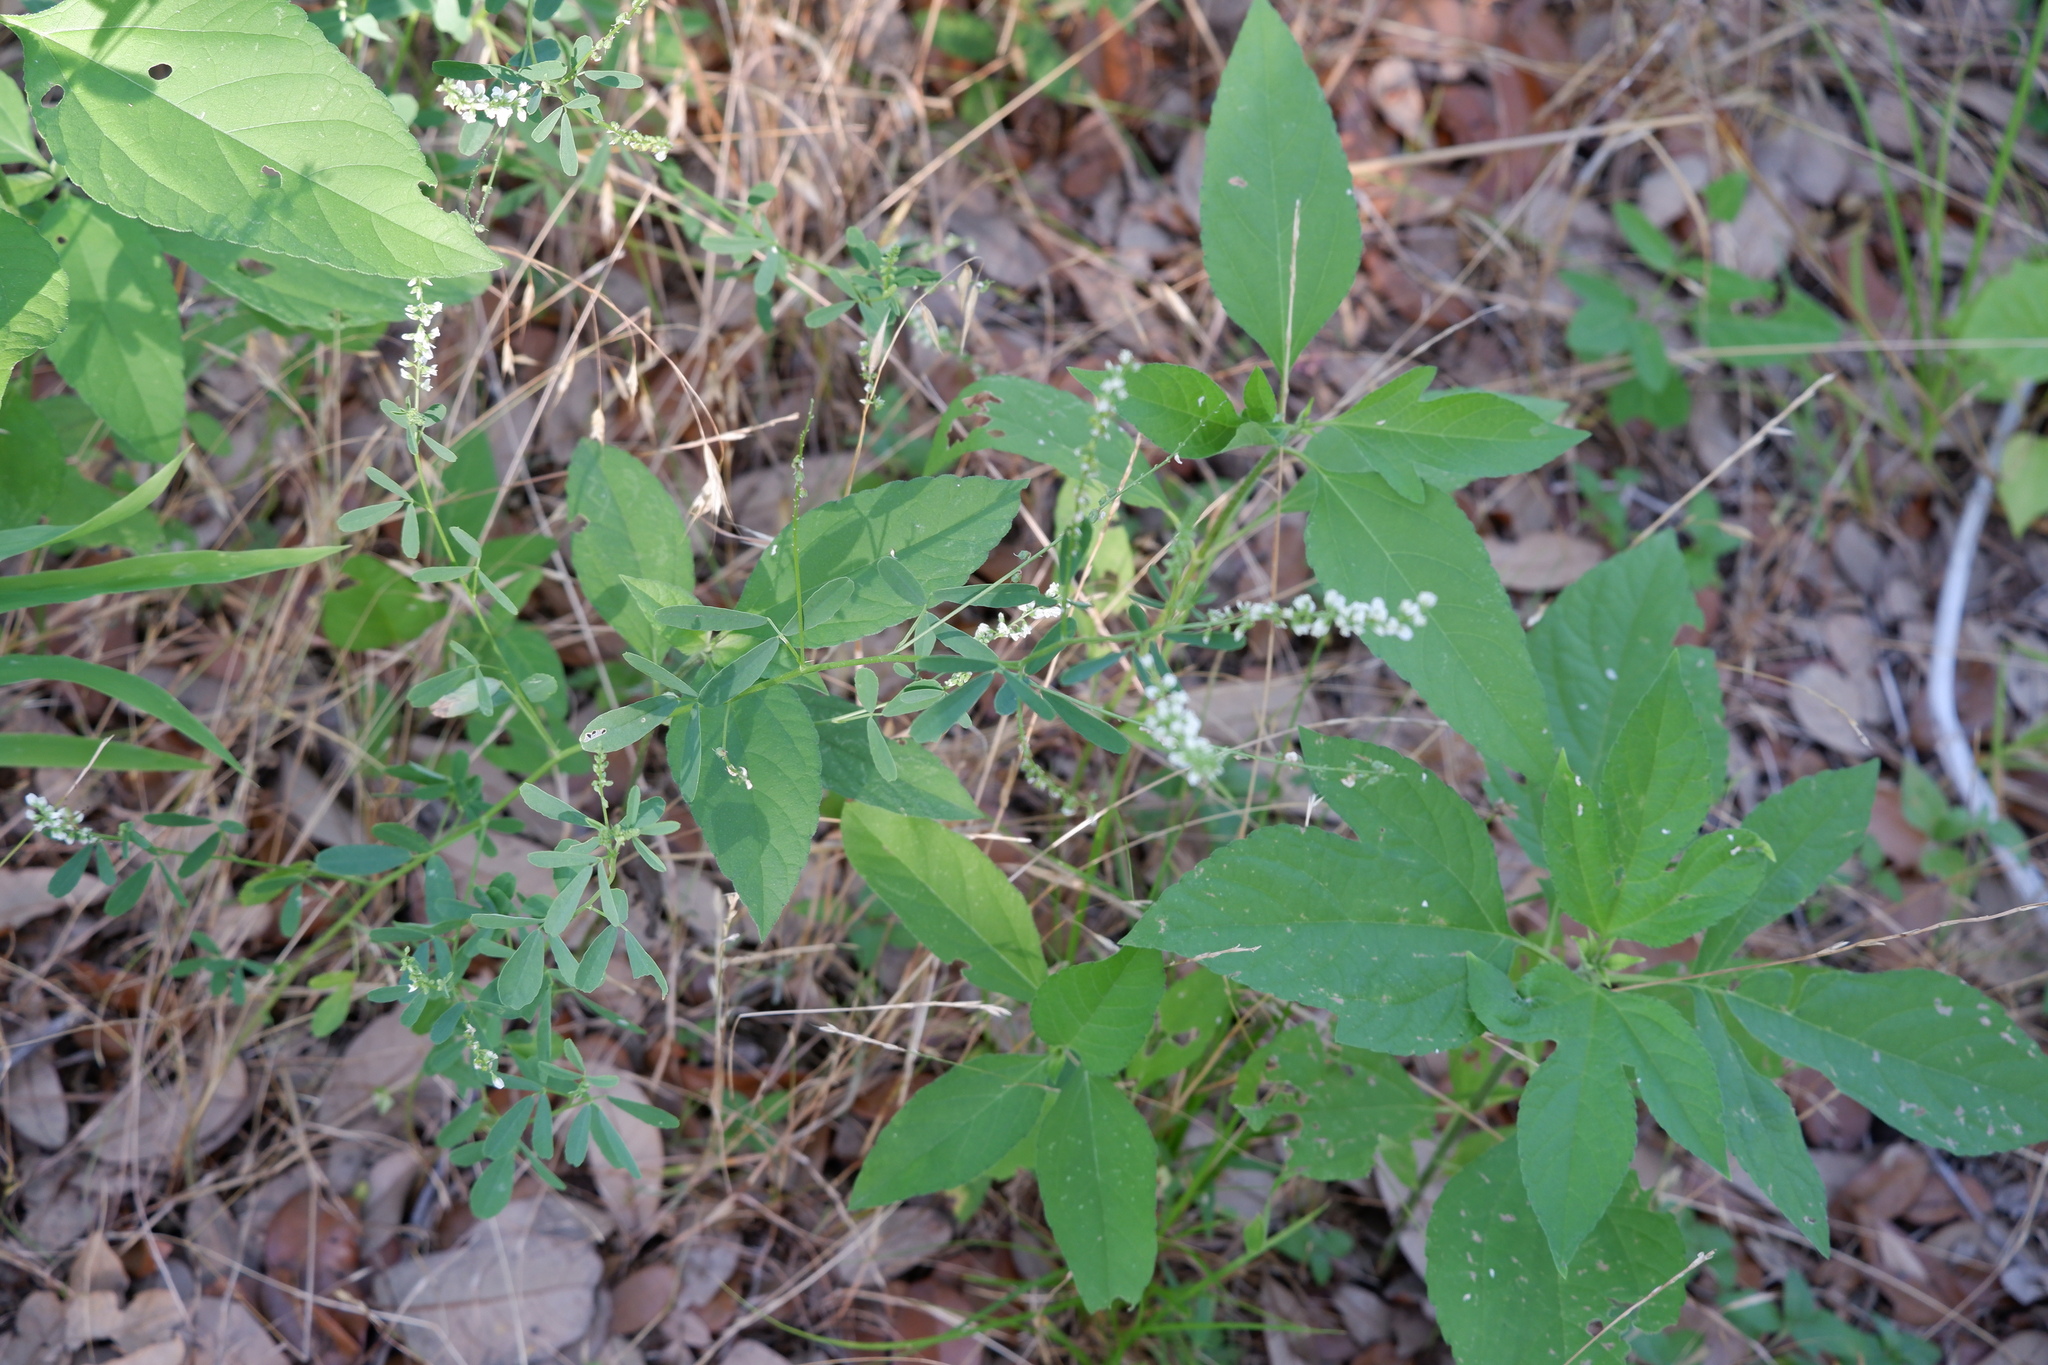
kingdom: Plantae
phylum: Tracheophyta
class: Magnoliopsida
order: Fabales
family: Fabaceae
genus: Melilotus
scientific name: Melilotus albus
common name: White melilot
